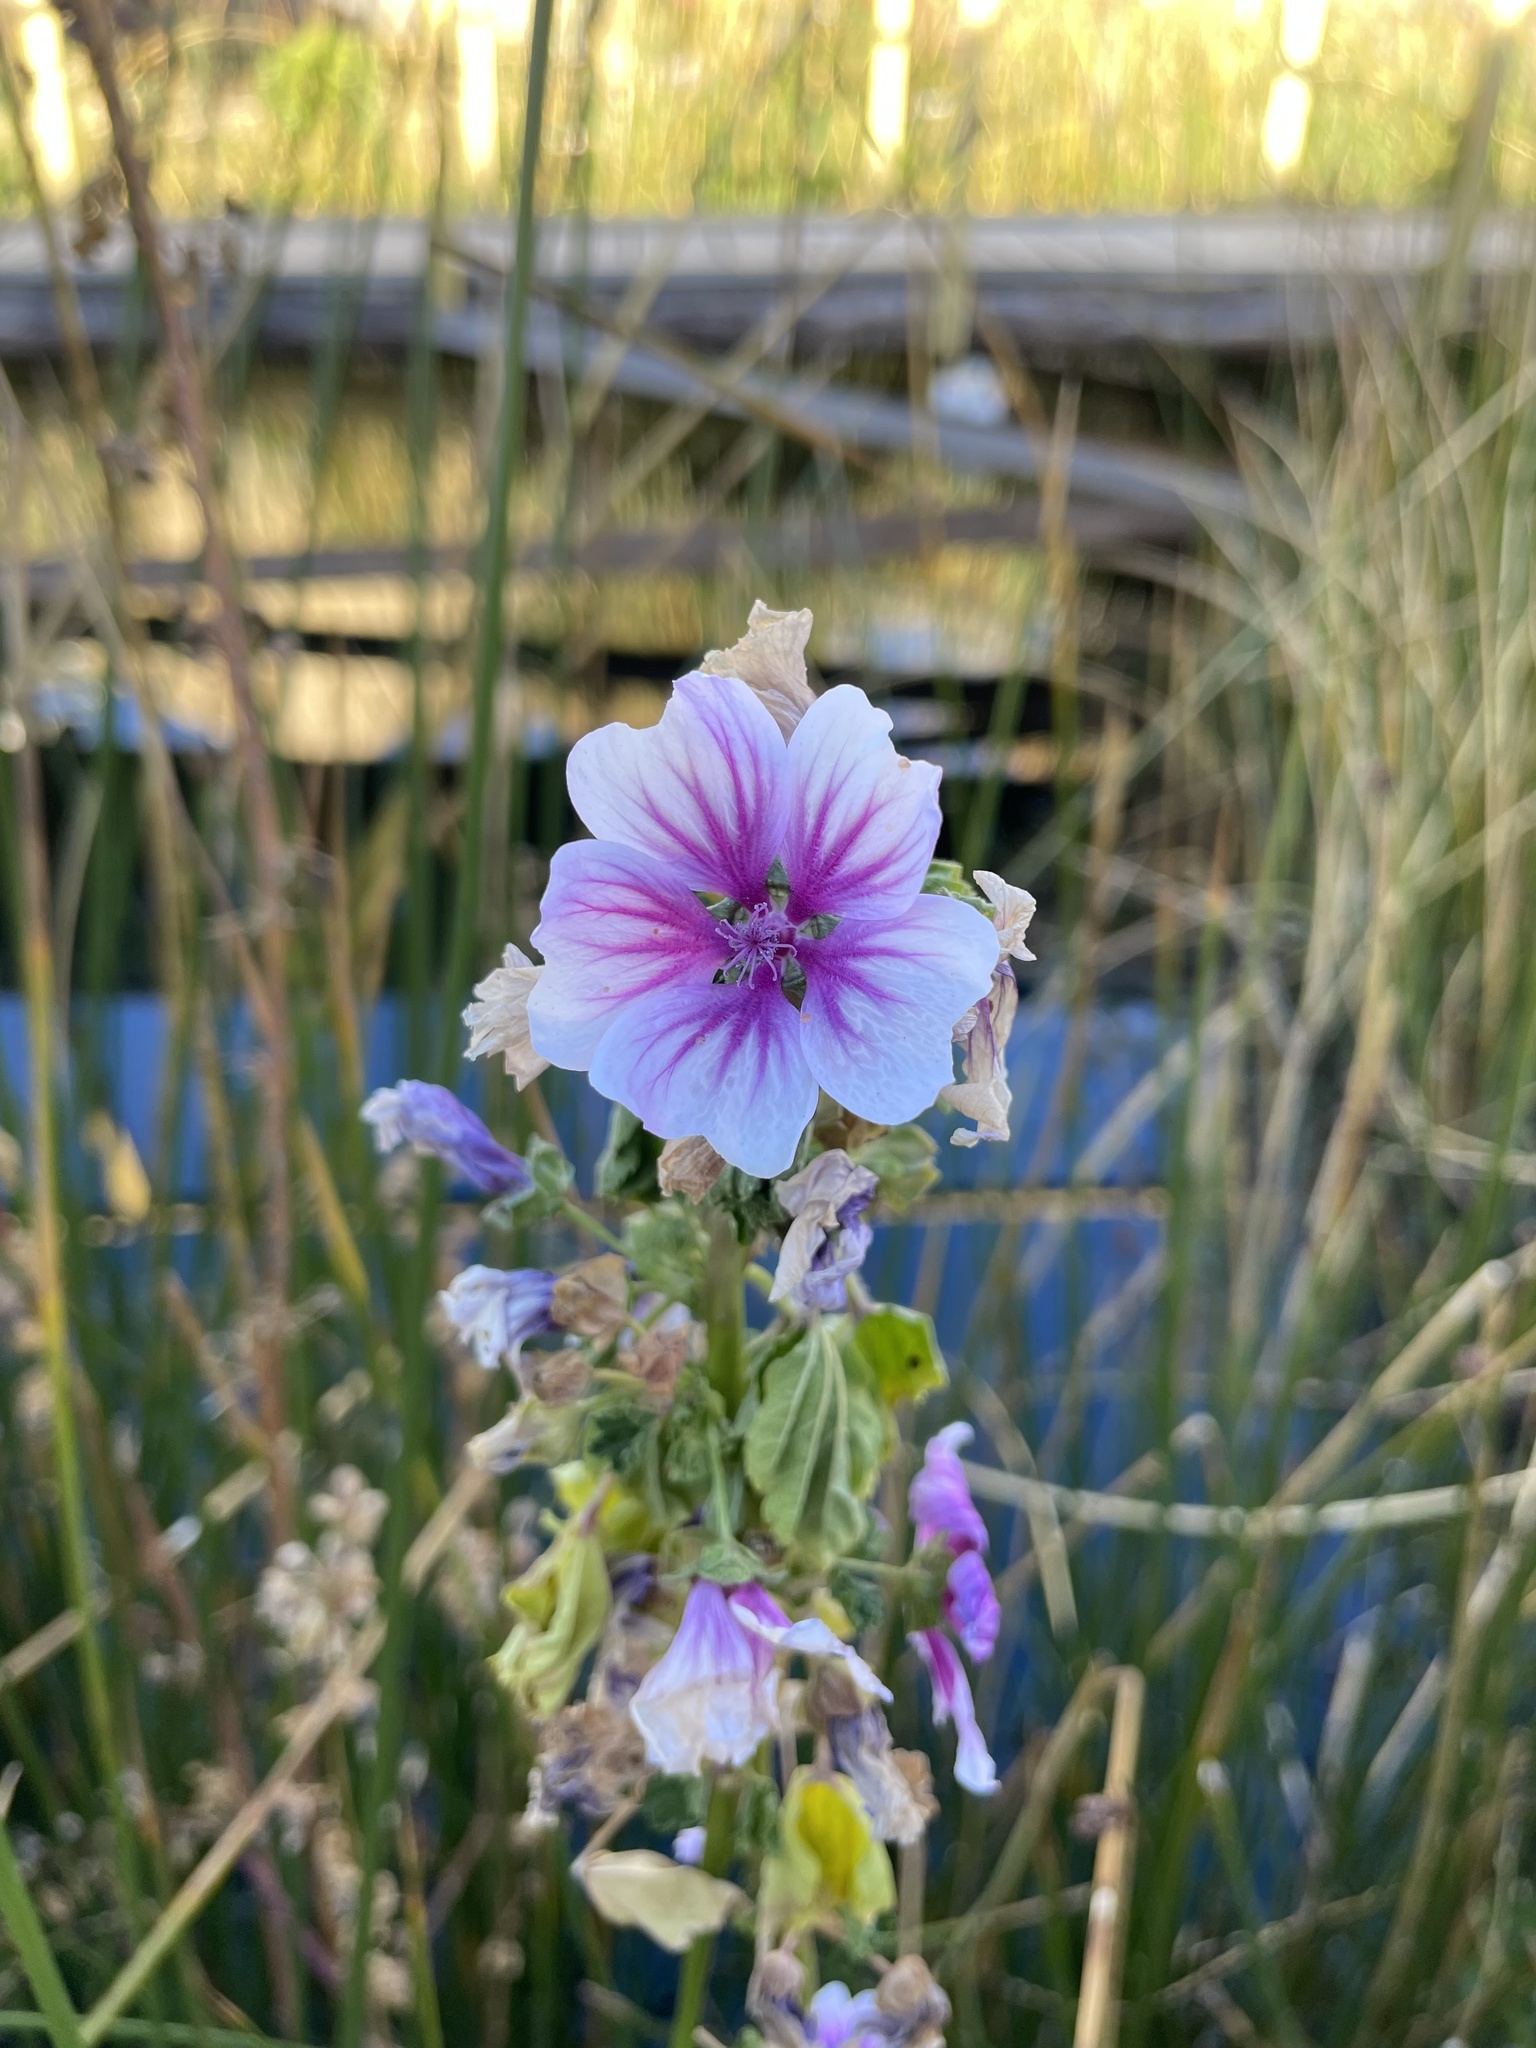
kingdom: Plantae
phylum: Tracheophyta
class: Magnoliopsida
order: Malvales
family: Malvaceae
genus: Malva
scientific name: Malva sylvestris
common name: Common mallow
